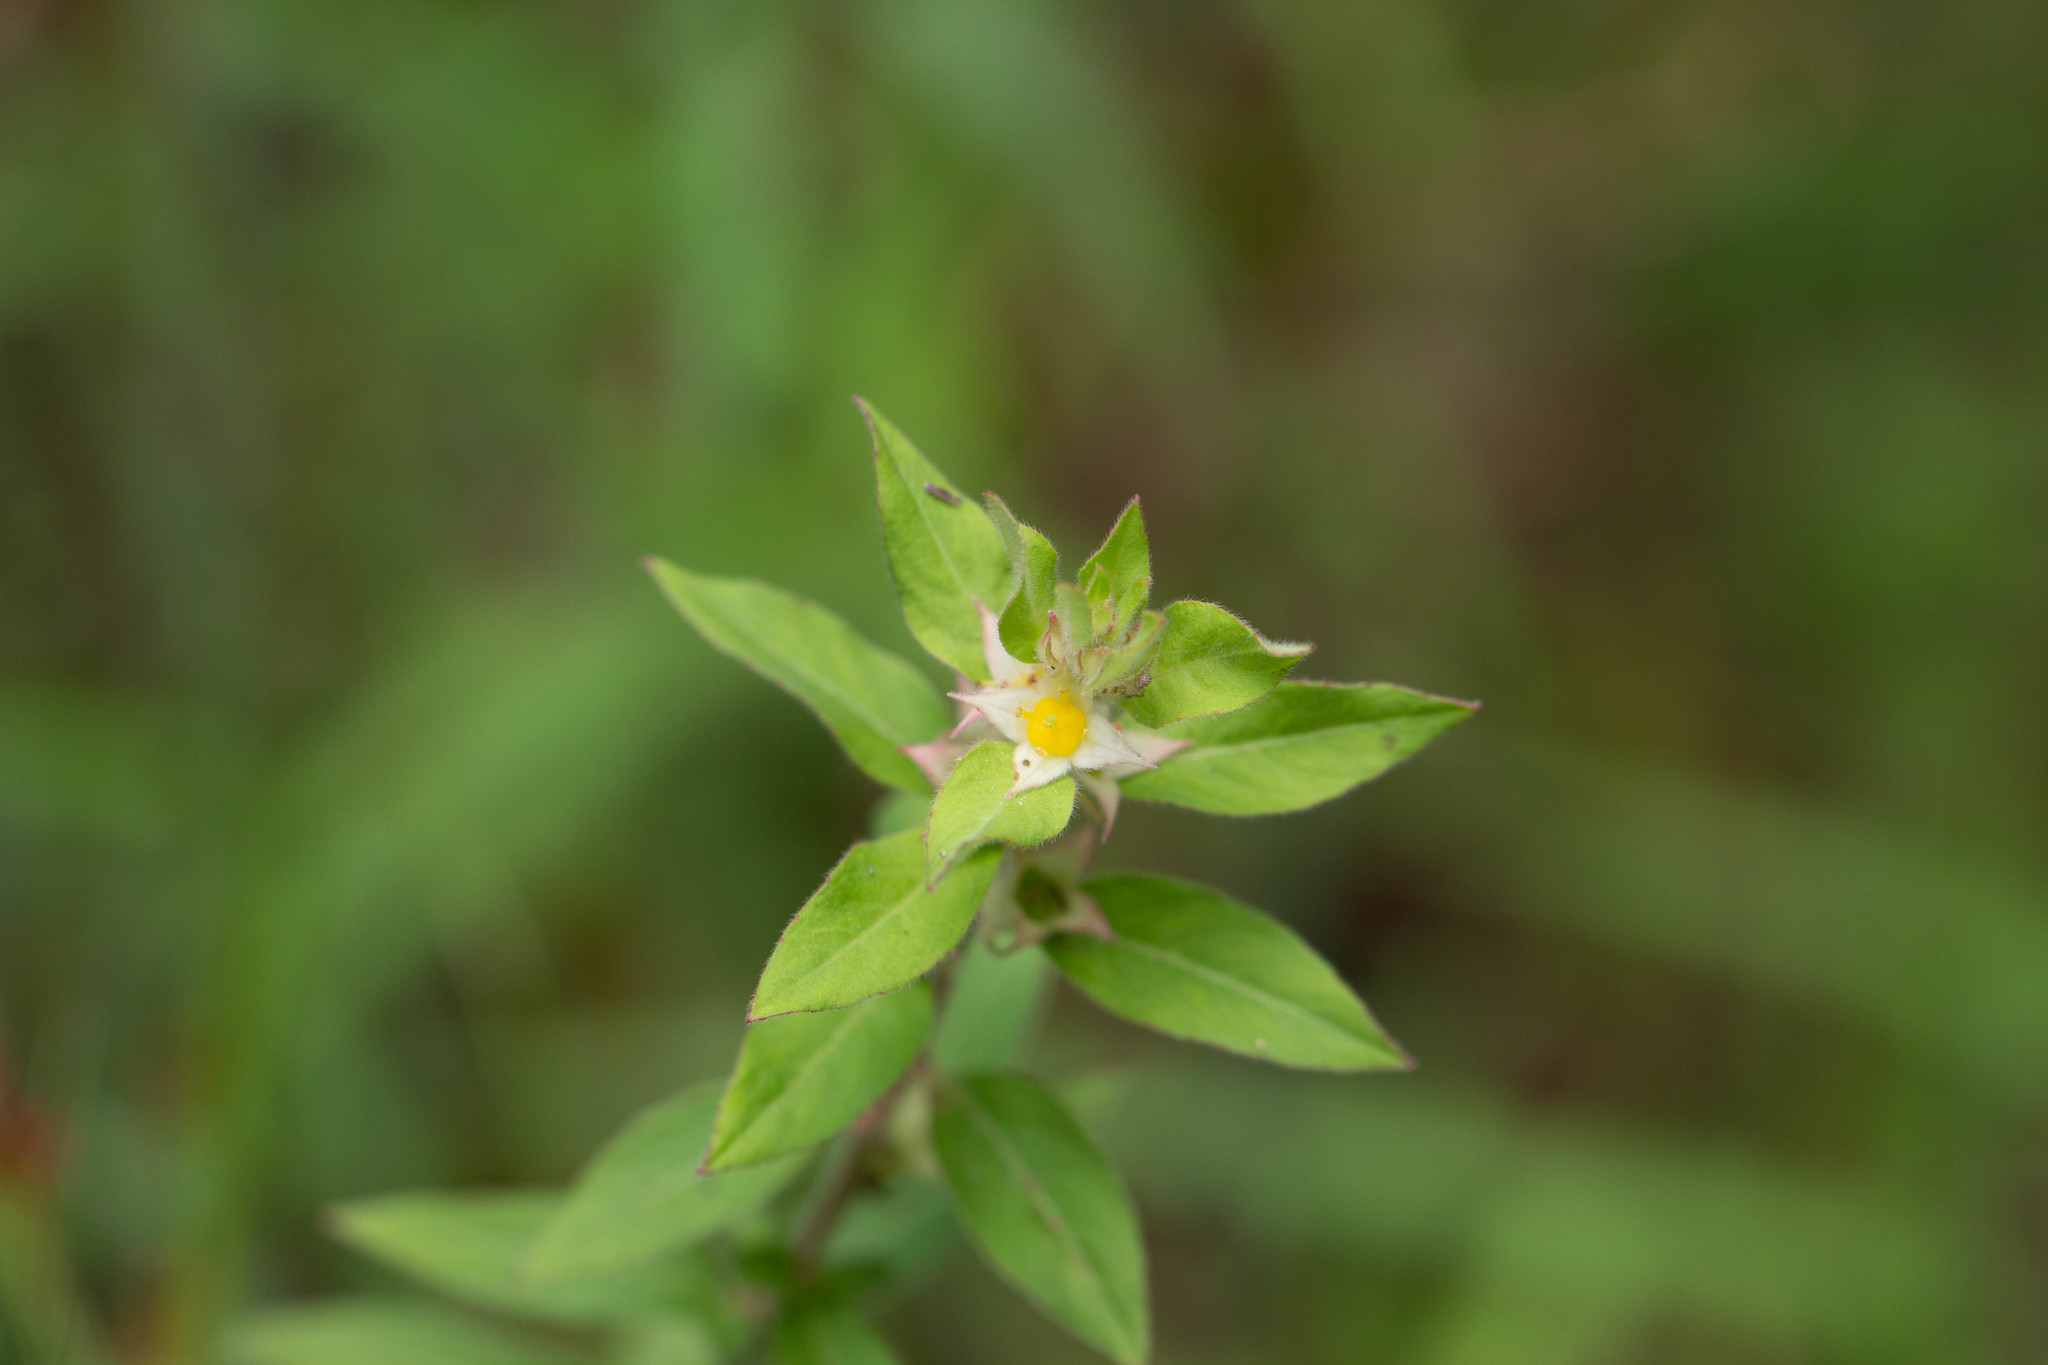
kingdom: Plantae
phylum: Tracheophyta
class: Magnoliopsida
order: Myrtales
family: Onagraceae
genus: Ludwigia
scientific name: Ludwigia pilosa
